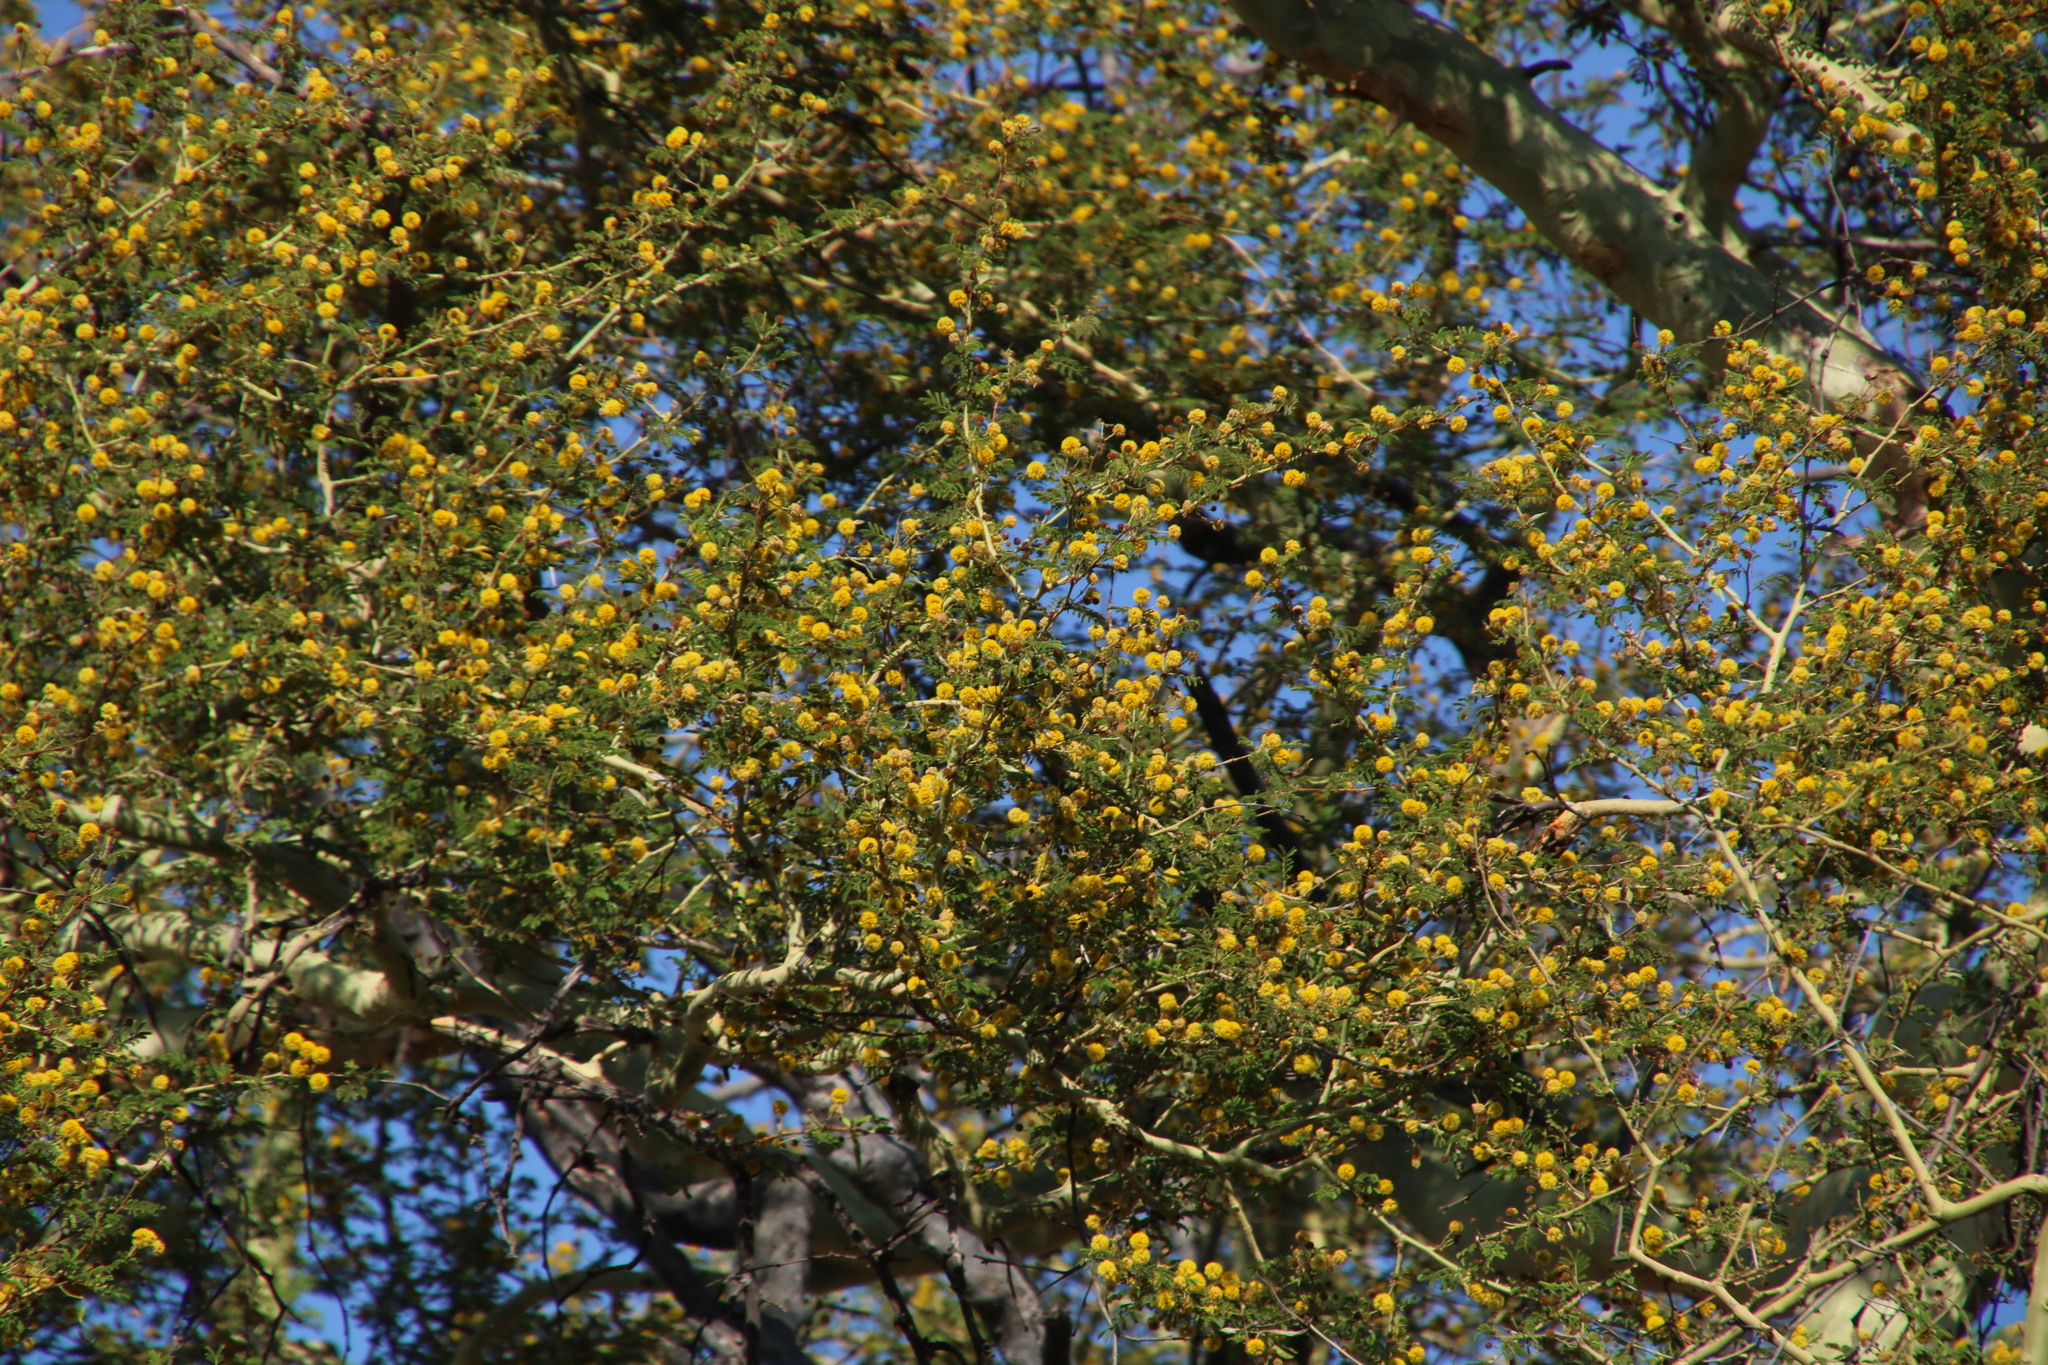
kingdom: Plantae
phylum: Tracheophyta
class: Magnoliopsida
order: Fabales
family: Fabaceae
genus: Vachellia
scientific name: Vachellia xanthophloea
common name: Fever tree
